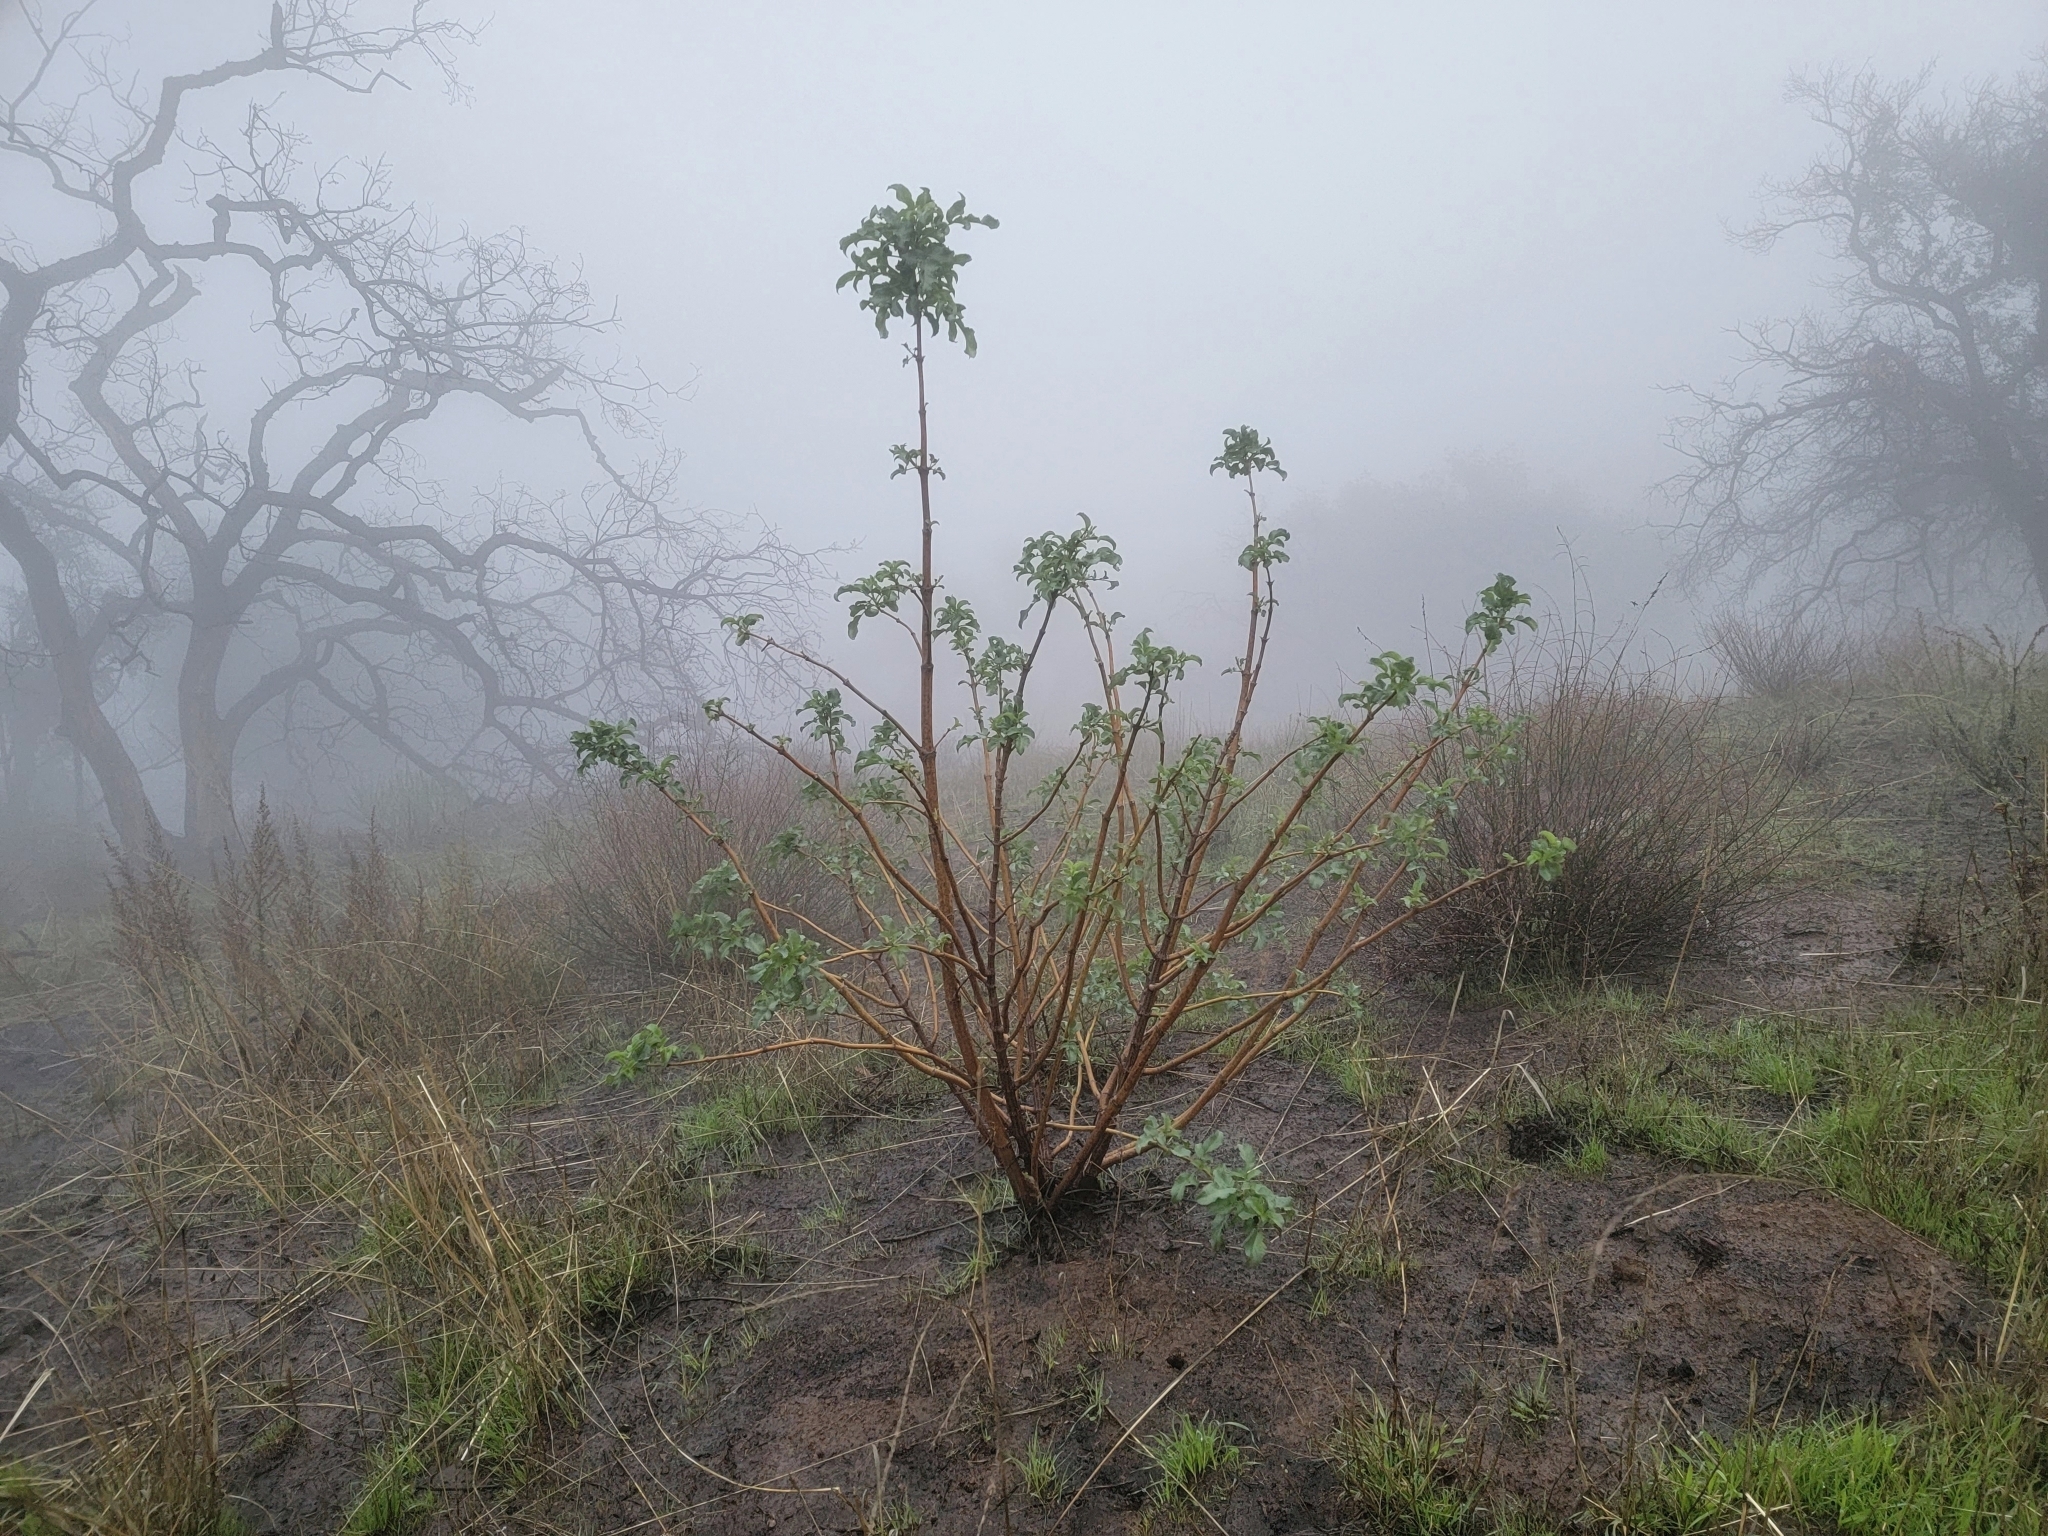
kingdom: Plantae
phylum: Tracheophyta
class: Magnoliopsida
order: Dipsacales
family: Viburnaceae
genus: Sambucus
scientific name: Sambucus cerulea
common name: Blue elder
